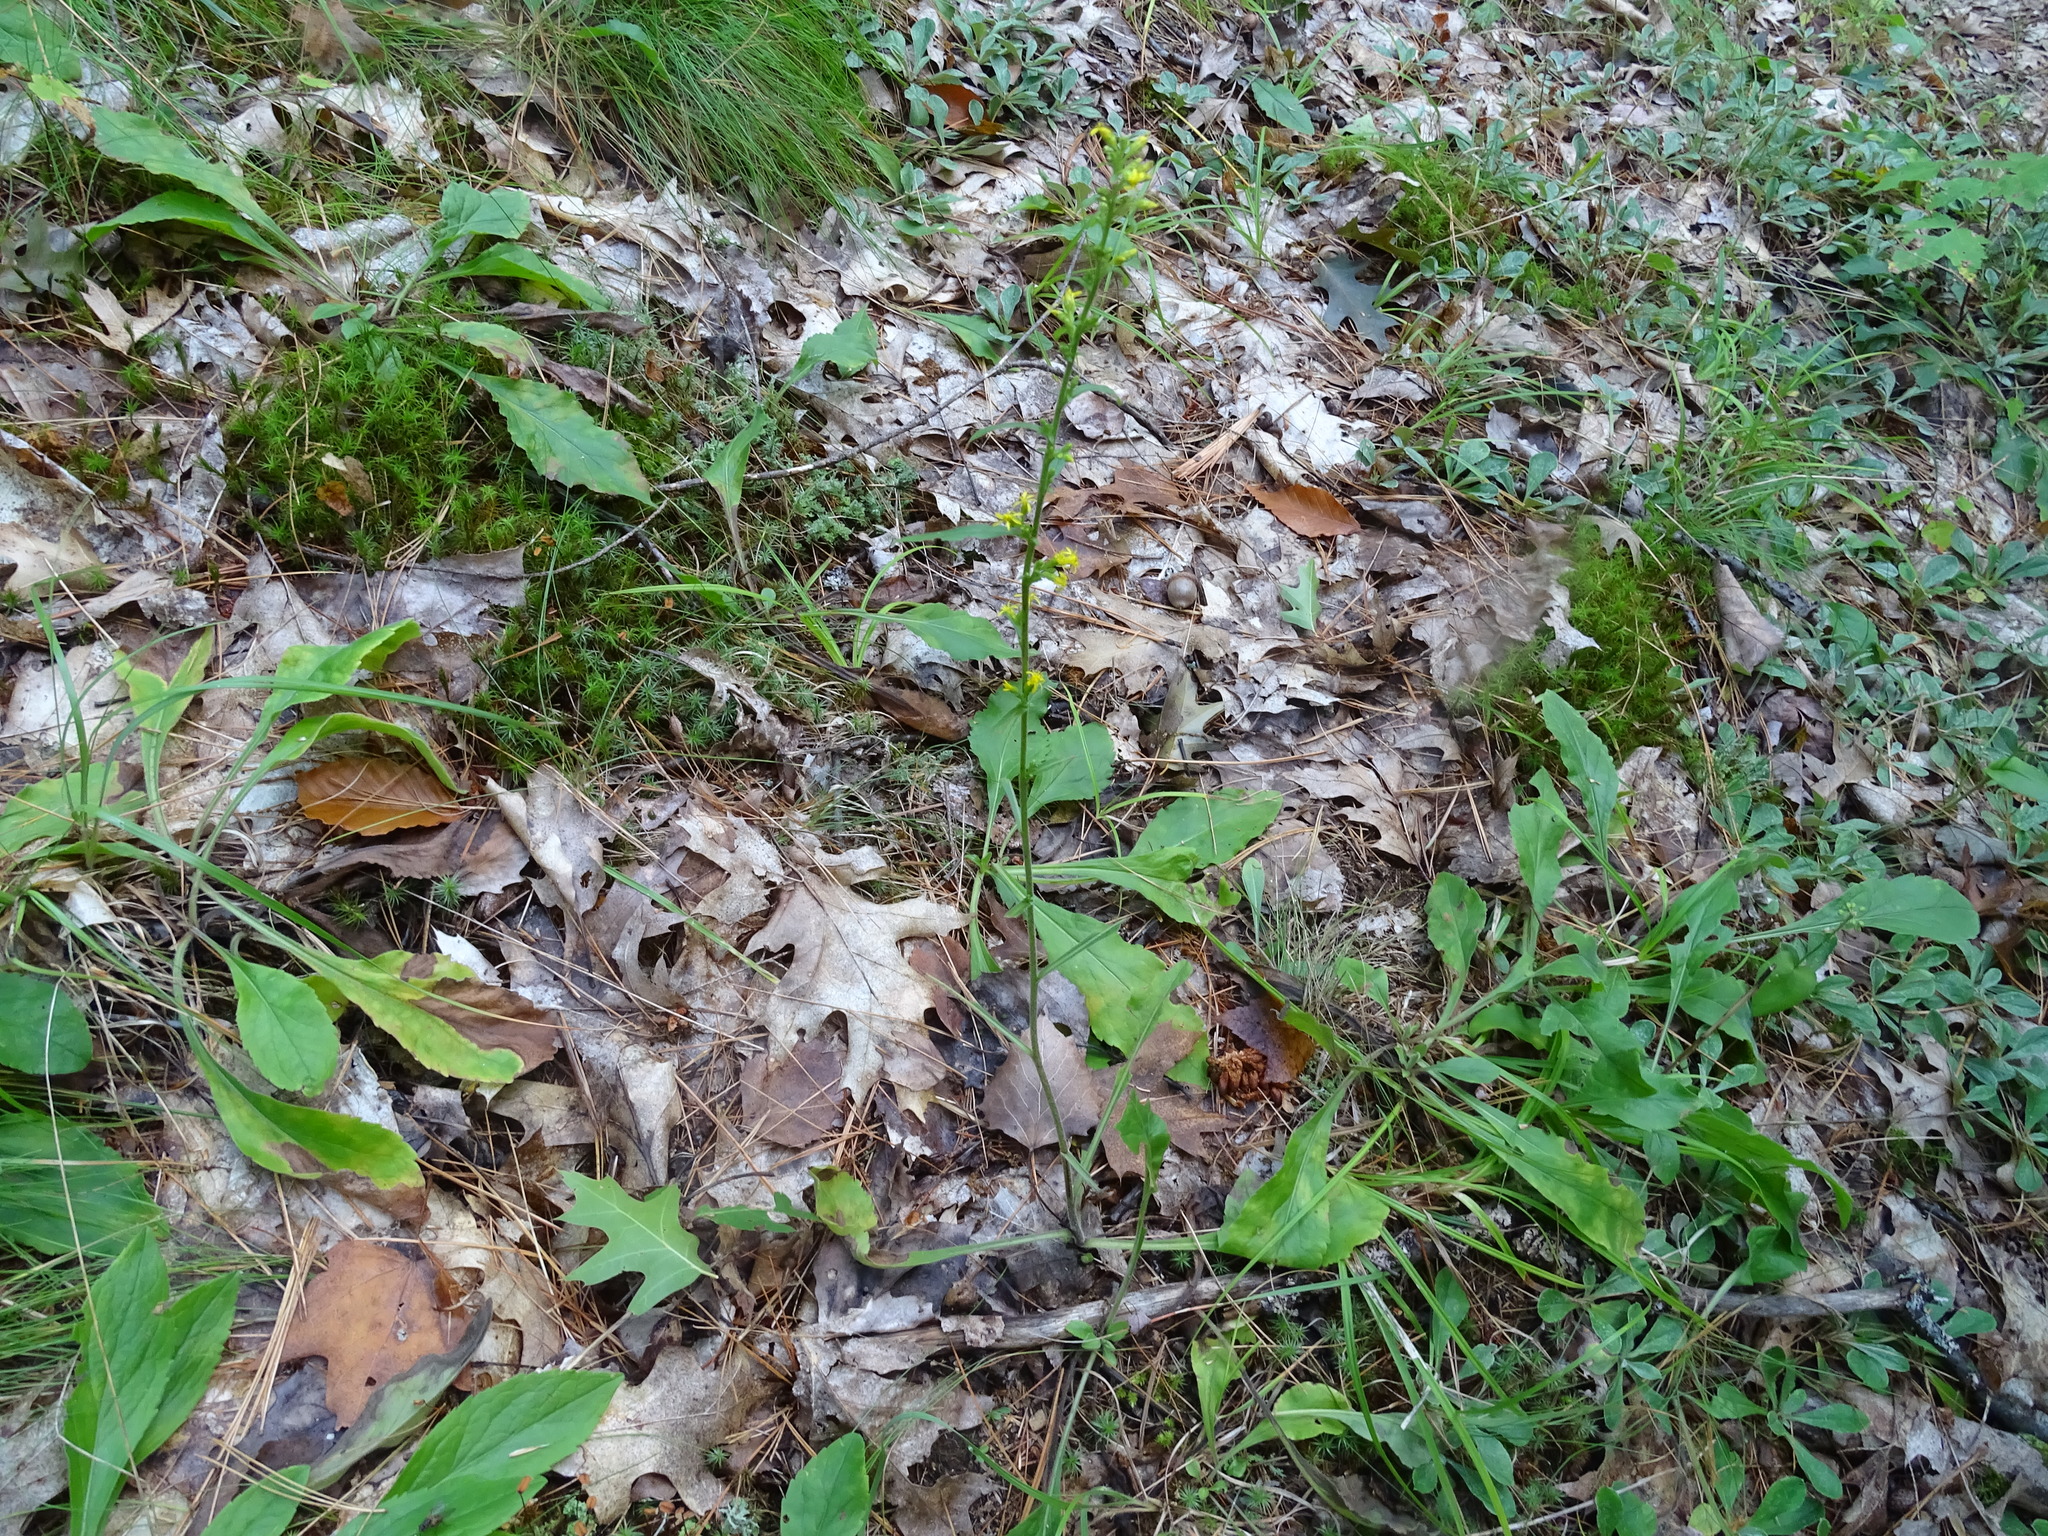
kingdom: Plantae
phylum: Tracheophyta
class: Magnoliopsida
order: Asterales
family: Asteraceae
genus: Solidago
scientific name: Solidago hispida
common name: Hairy goldenrod
